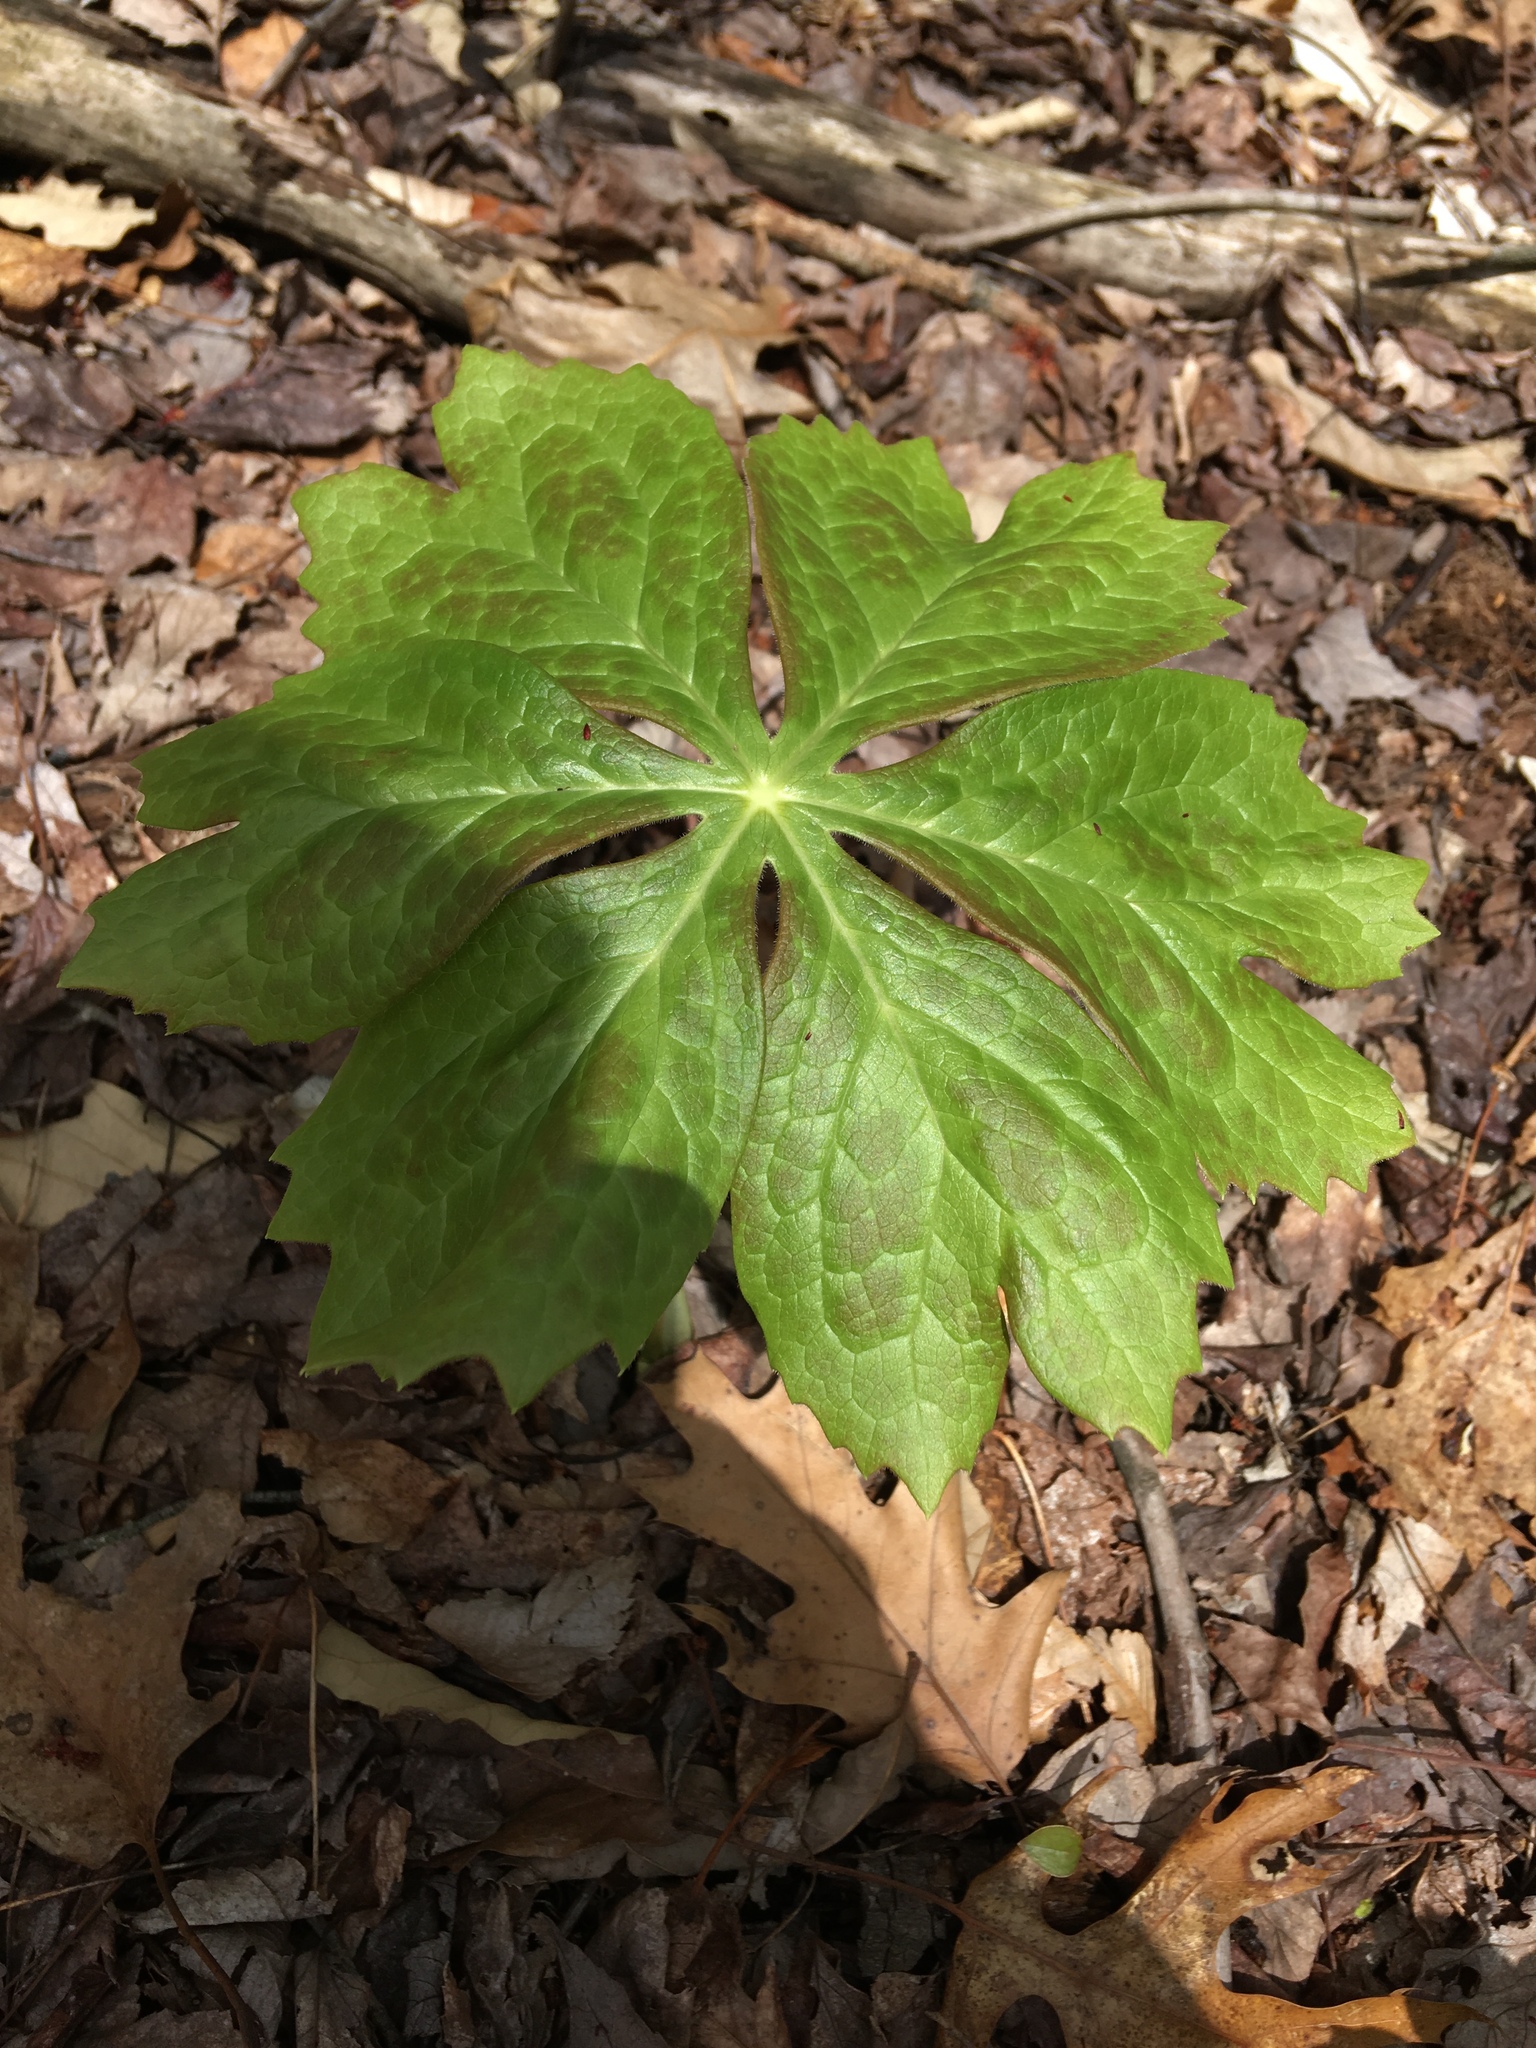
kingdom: Plantae
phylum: Tracheophyta
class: Magnoliopsida
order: Ranunculales
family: Berberidaceae
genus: Podophyllum
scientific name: Podophyllum peltatum
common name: Wild mandrake
